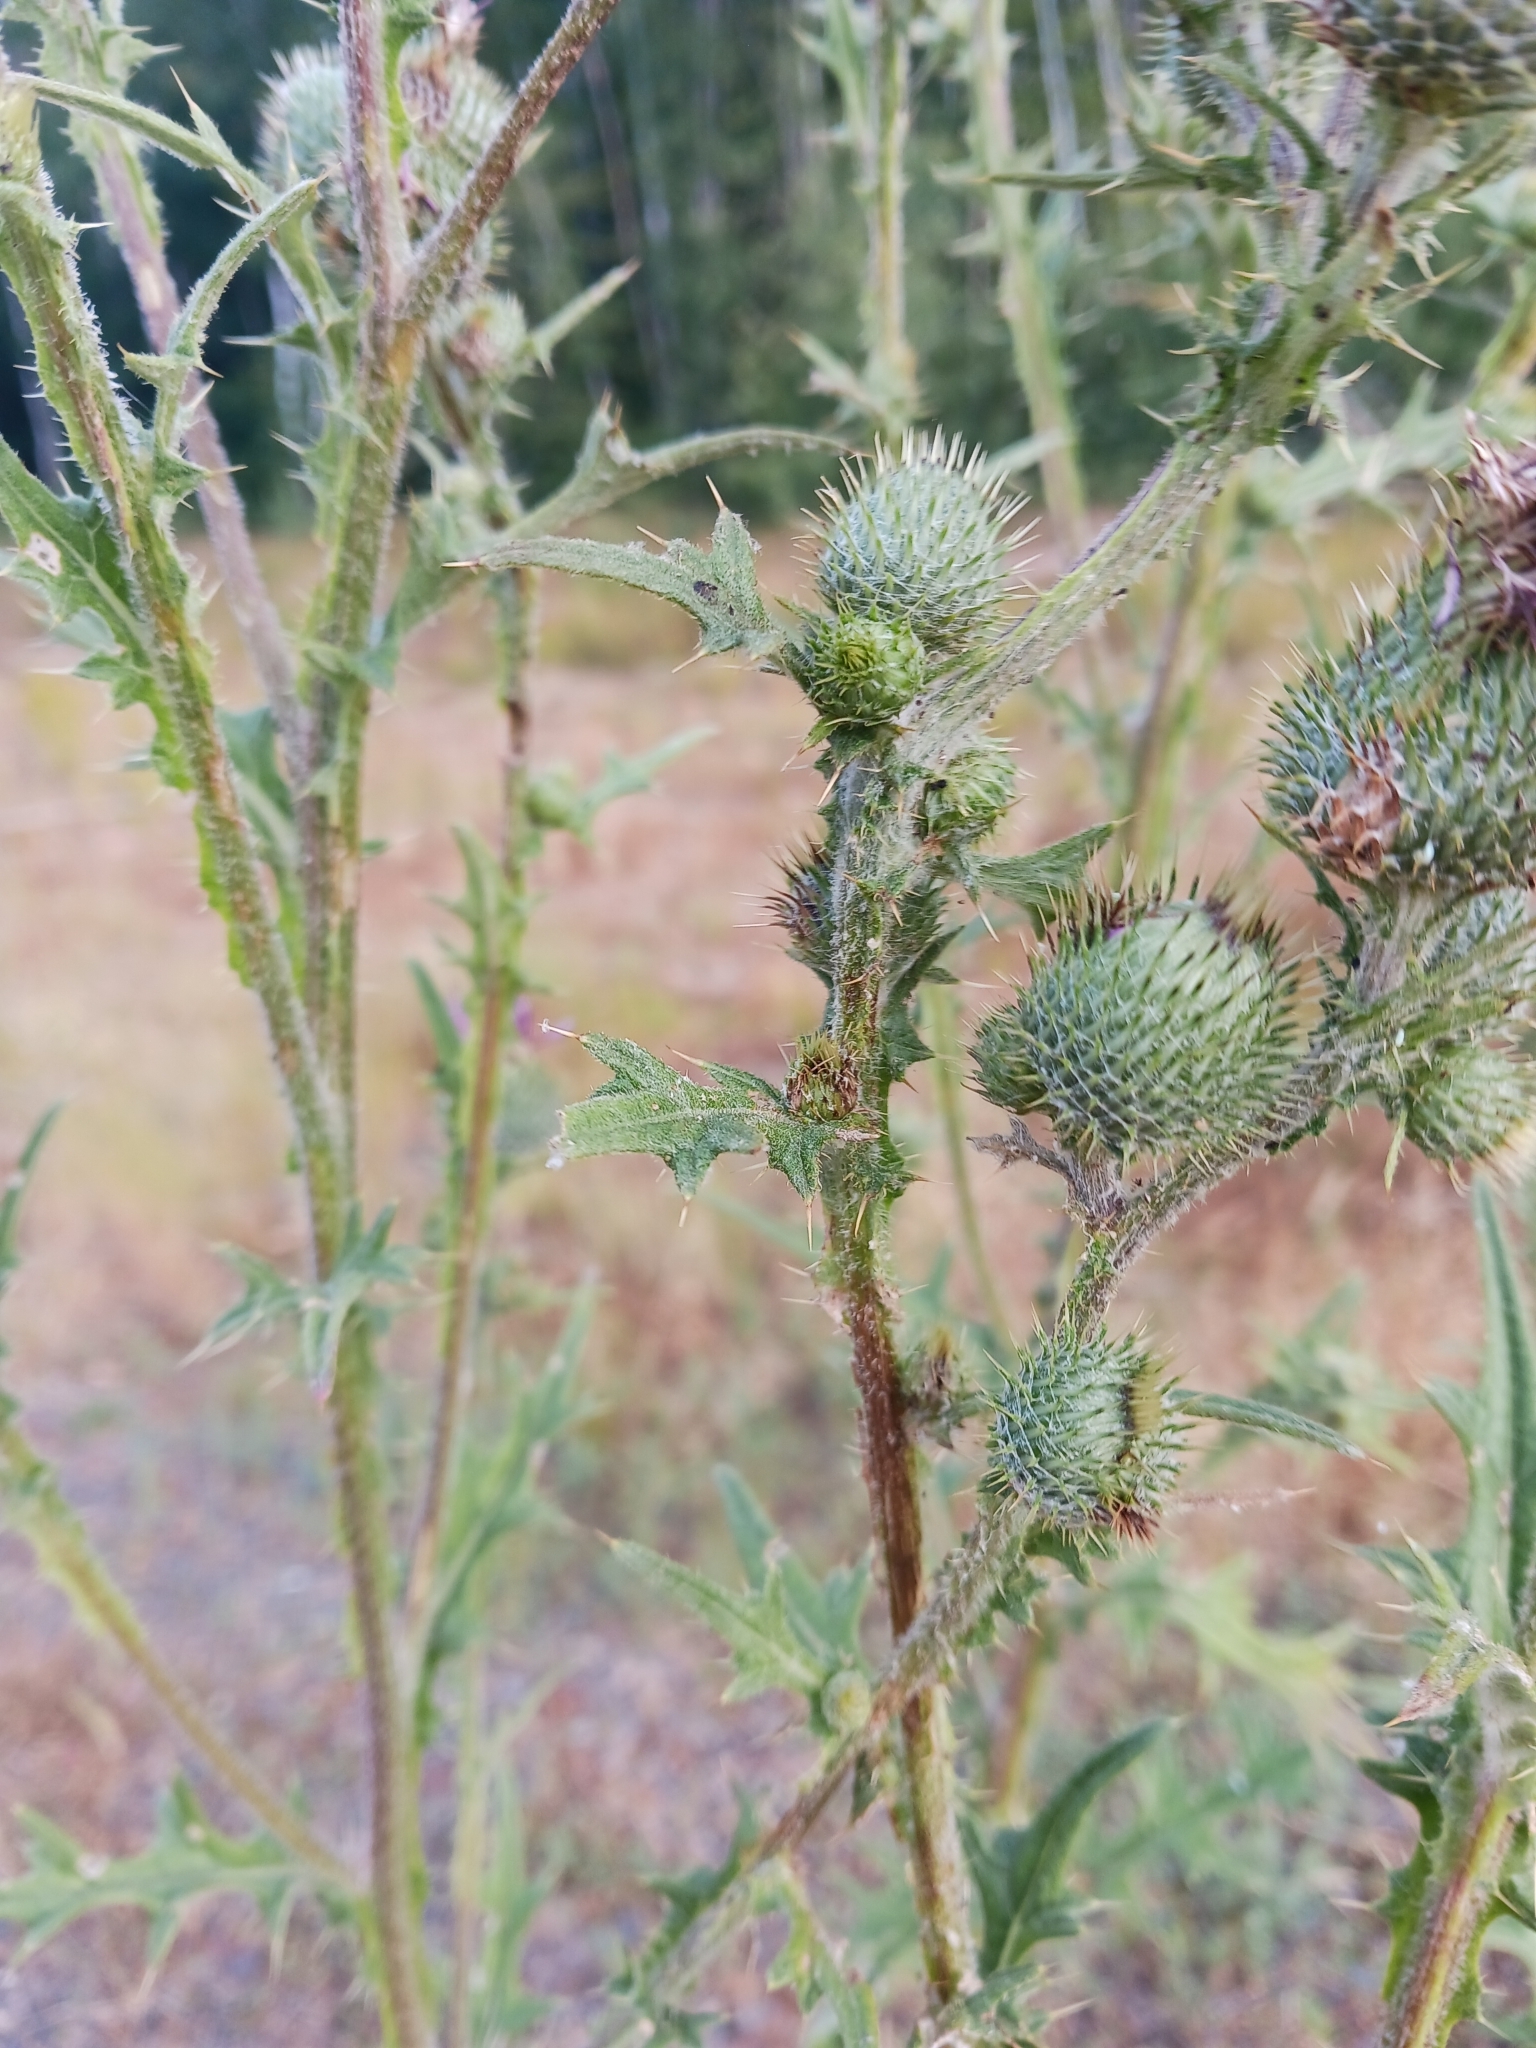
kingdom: Plantae
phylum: Tracheophyta
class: Magnoliopsida
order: Asterales
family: Asteraceae
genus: Cirsium
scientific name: Cirsium vulgare
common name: Bull thistle
